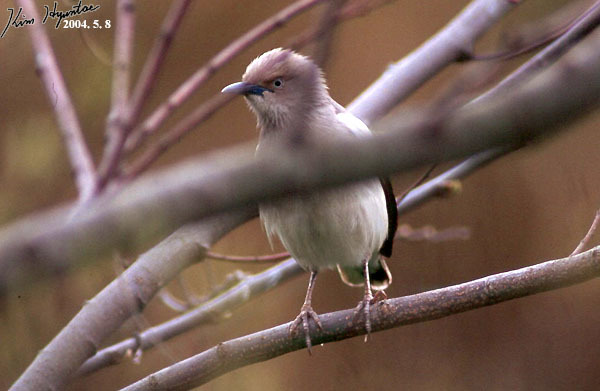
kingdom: Animalia
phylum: Chordata
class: Aves
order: Passeriformes
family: Sturnidae
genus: Sturnia
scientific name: Sturnia sinensis
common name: White-shouldered starling
